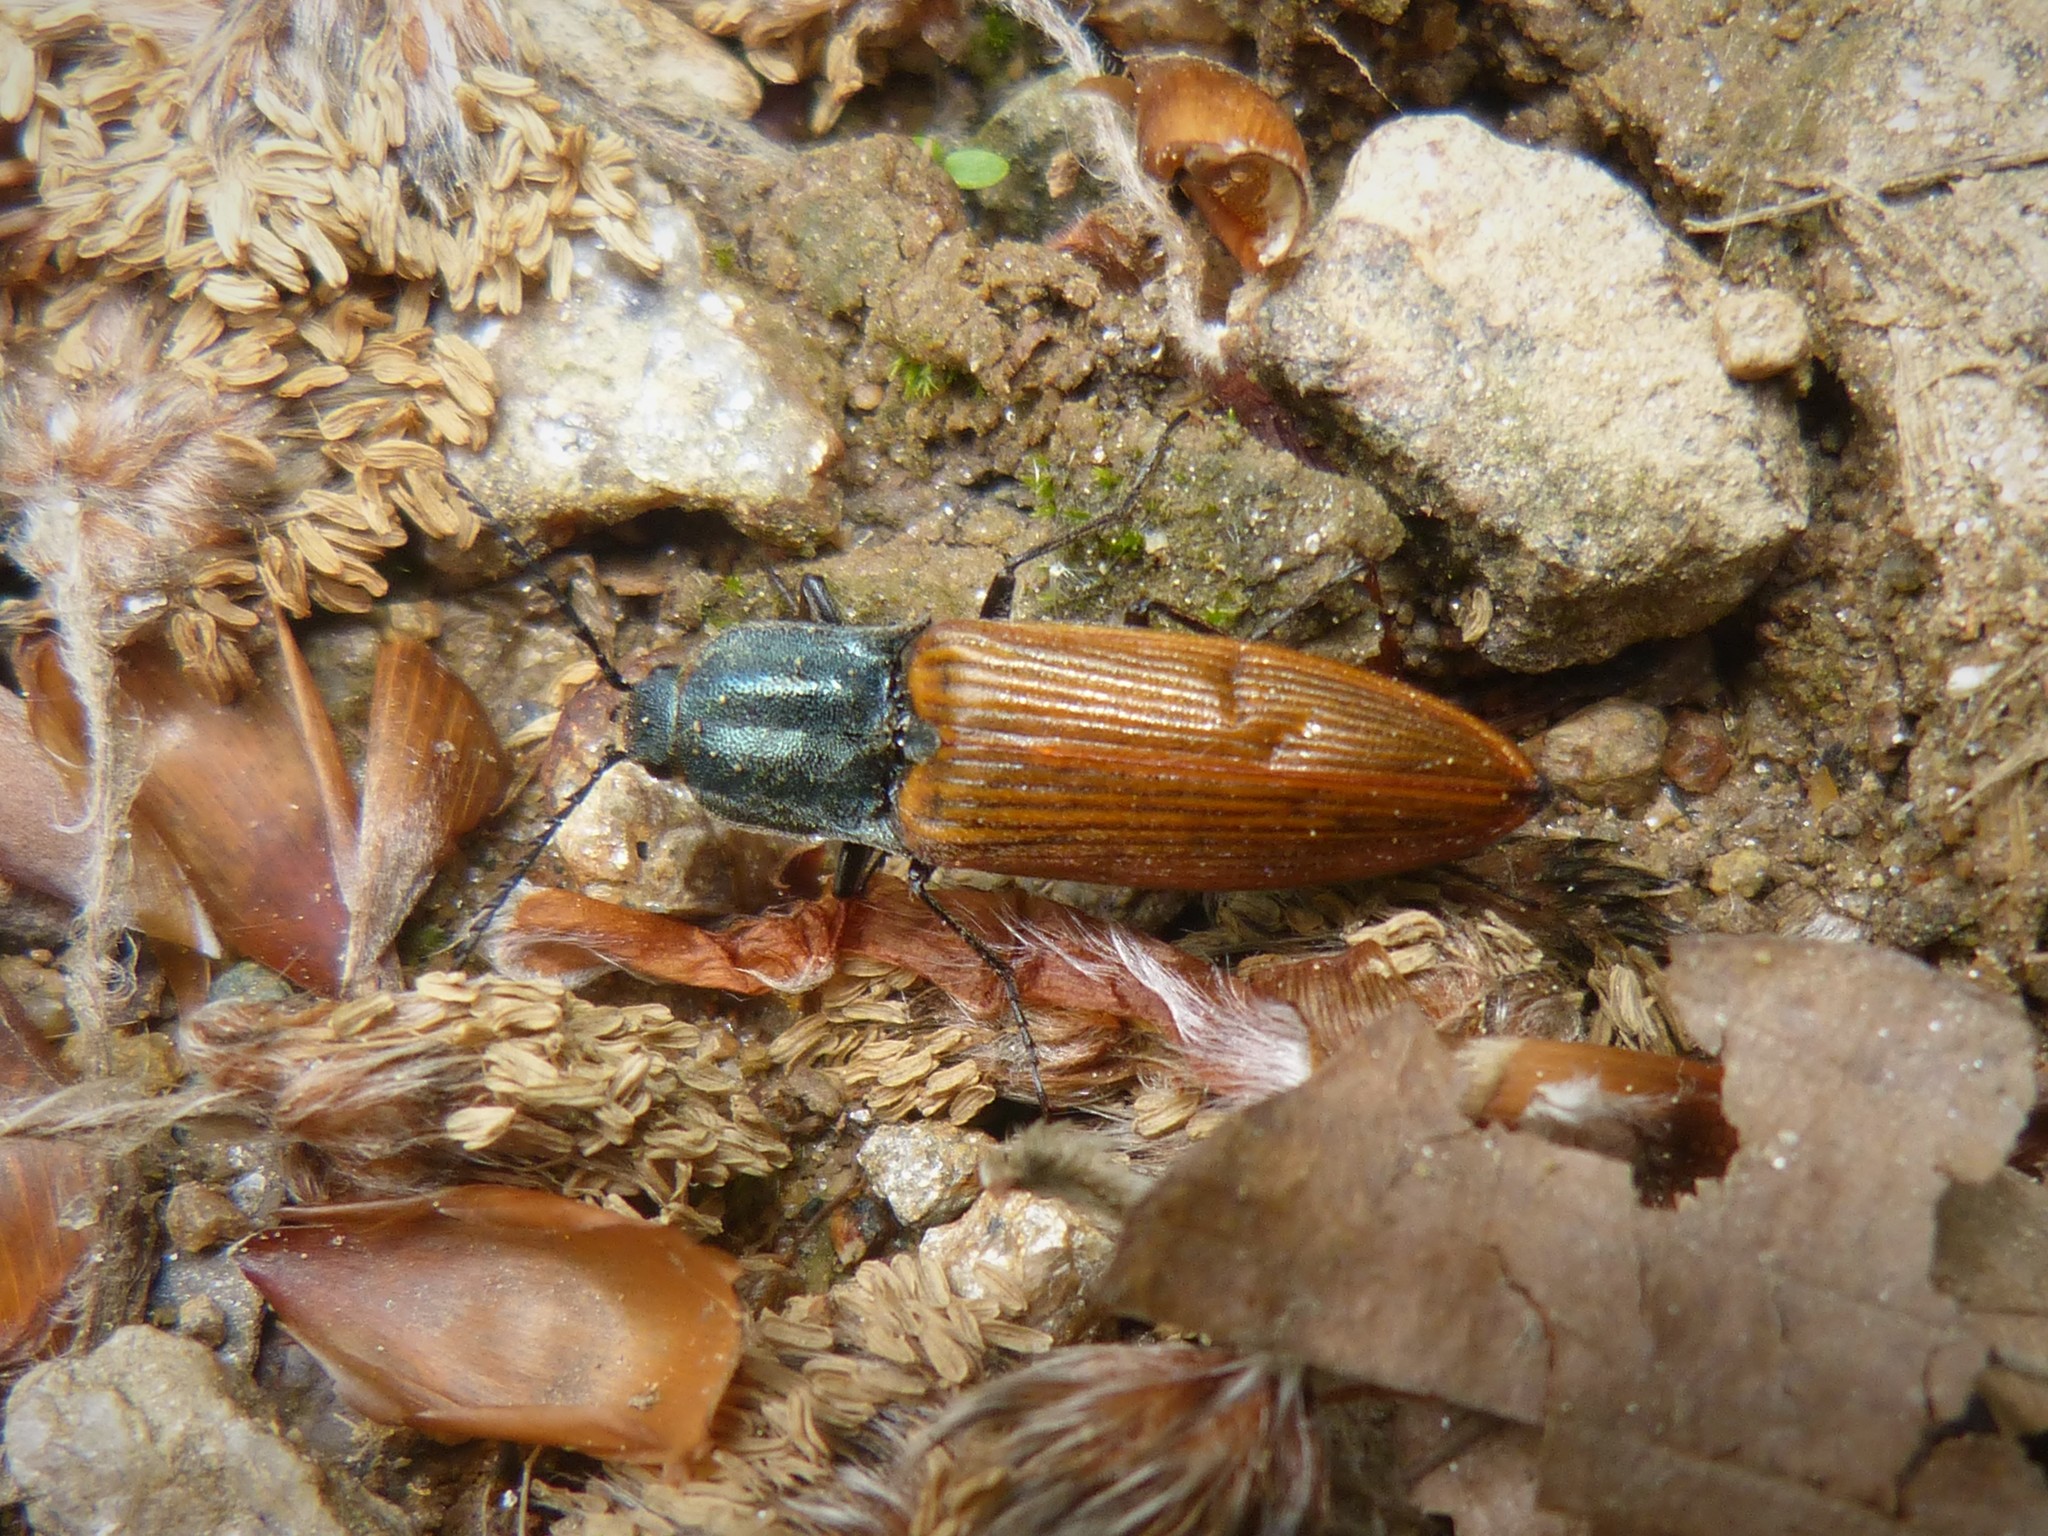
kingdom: Animalia
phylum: Arthropoda
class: Insecta
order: Coleoptera
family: Elateridae
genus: Ctenicera
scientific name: Ctenicera virens
